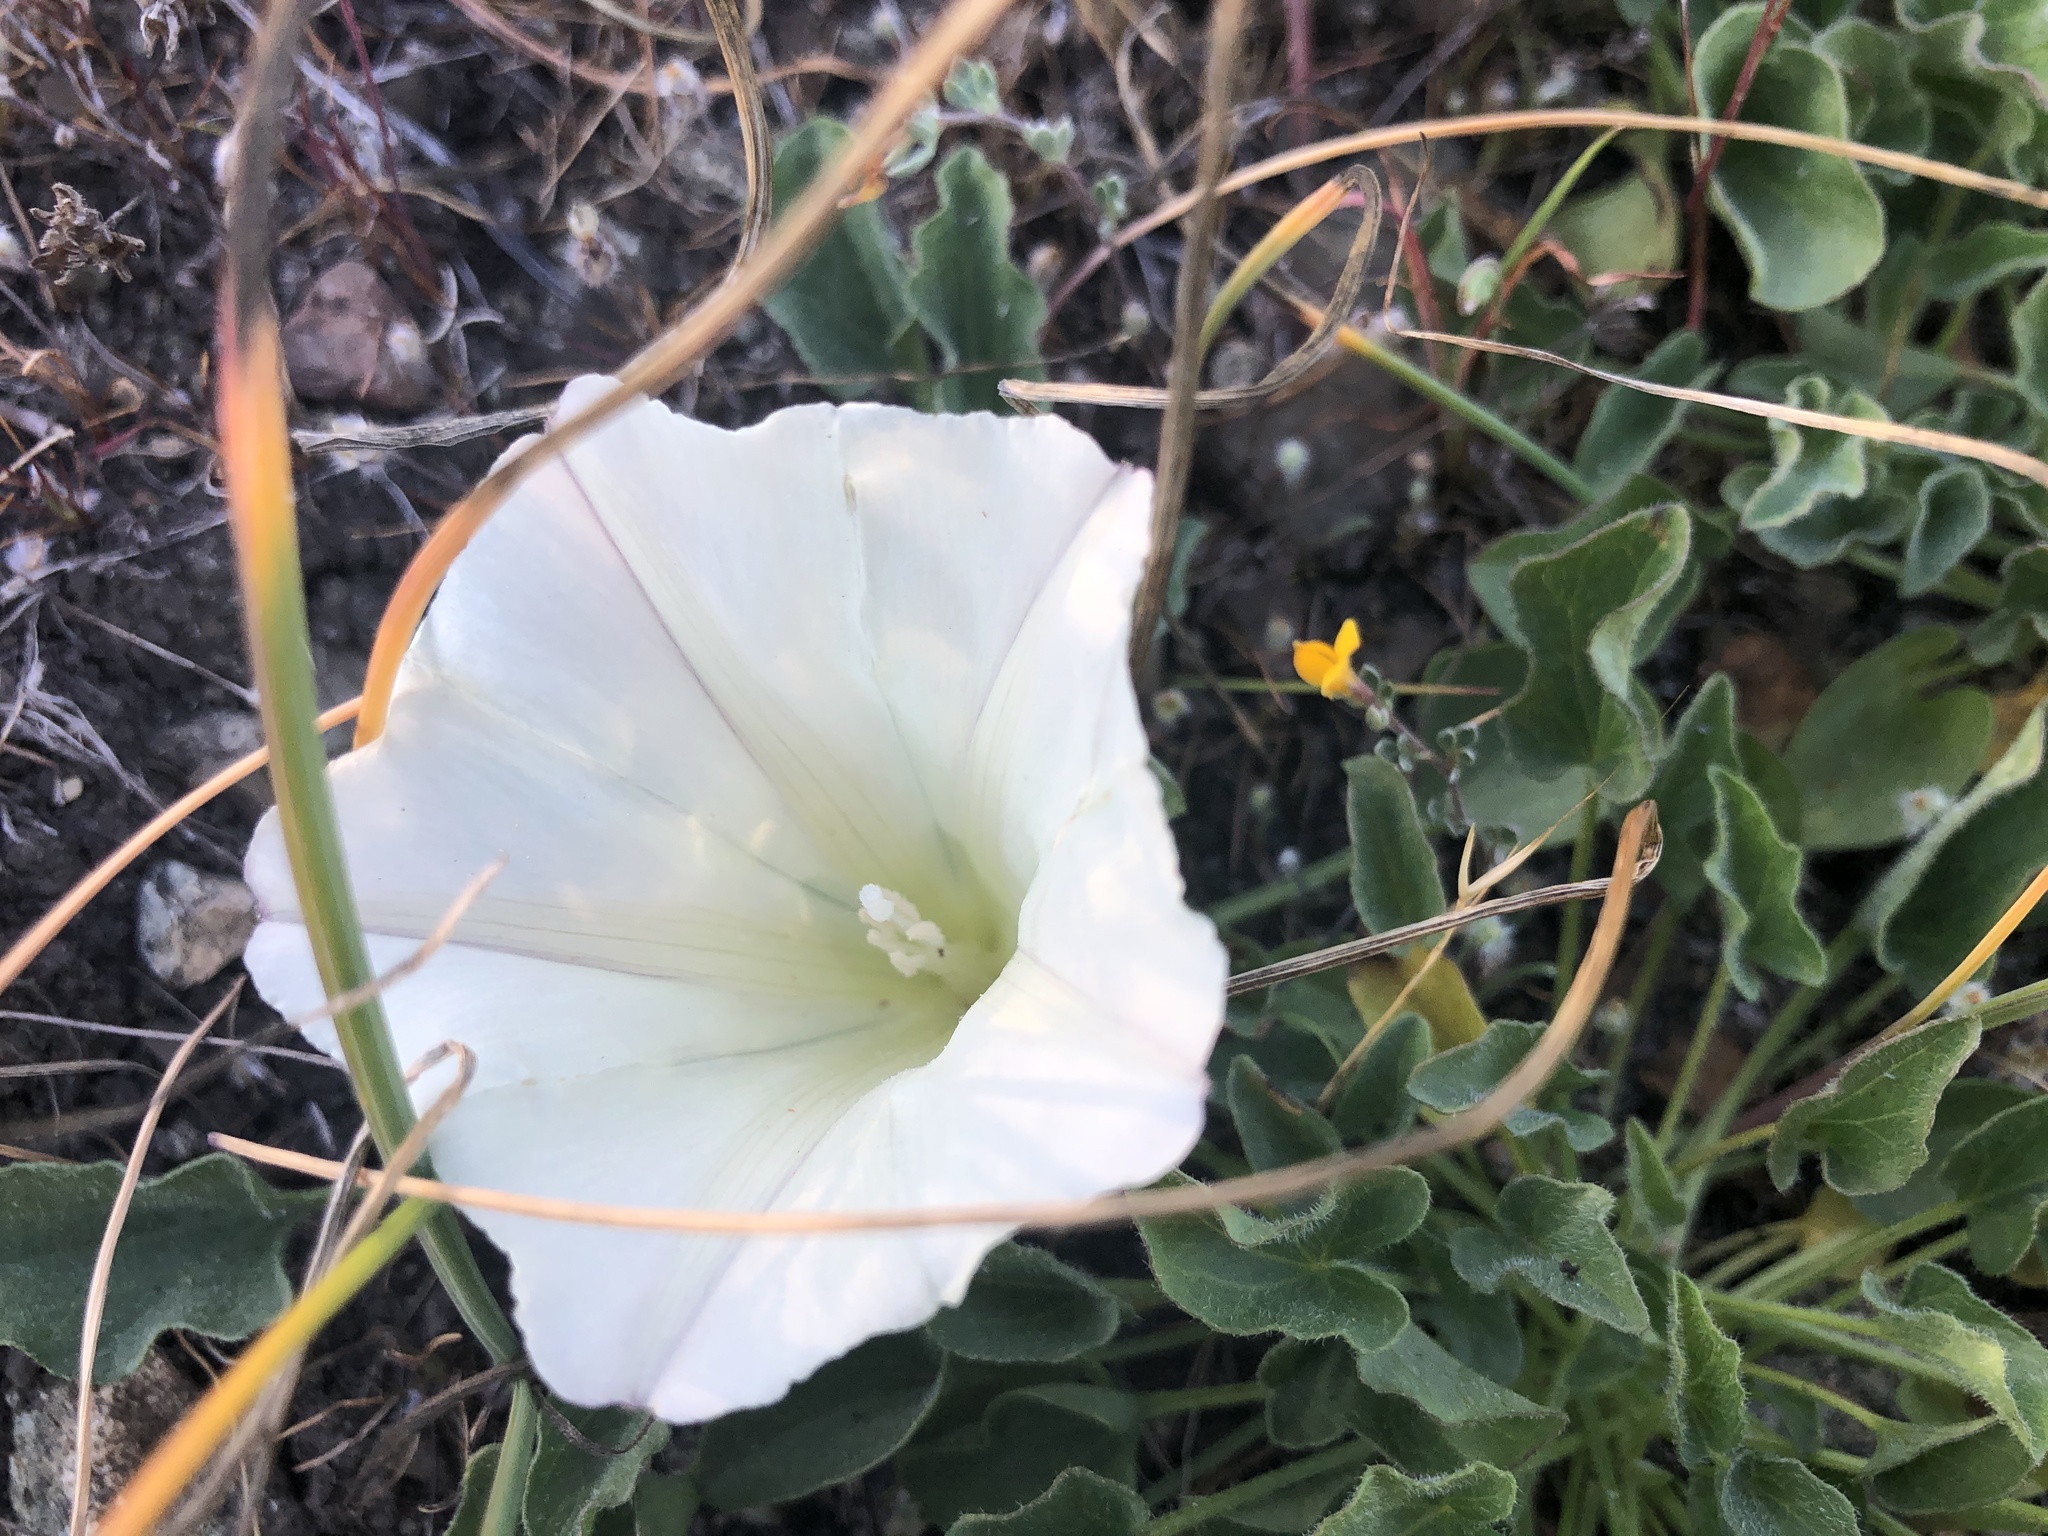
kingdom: Plantae
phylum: Tracheophyta
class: Magnoliopsida
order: Solanales
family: Convolvulaceae
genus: Calystegia
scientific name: Calystegia subacaulis
